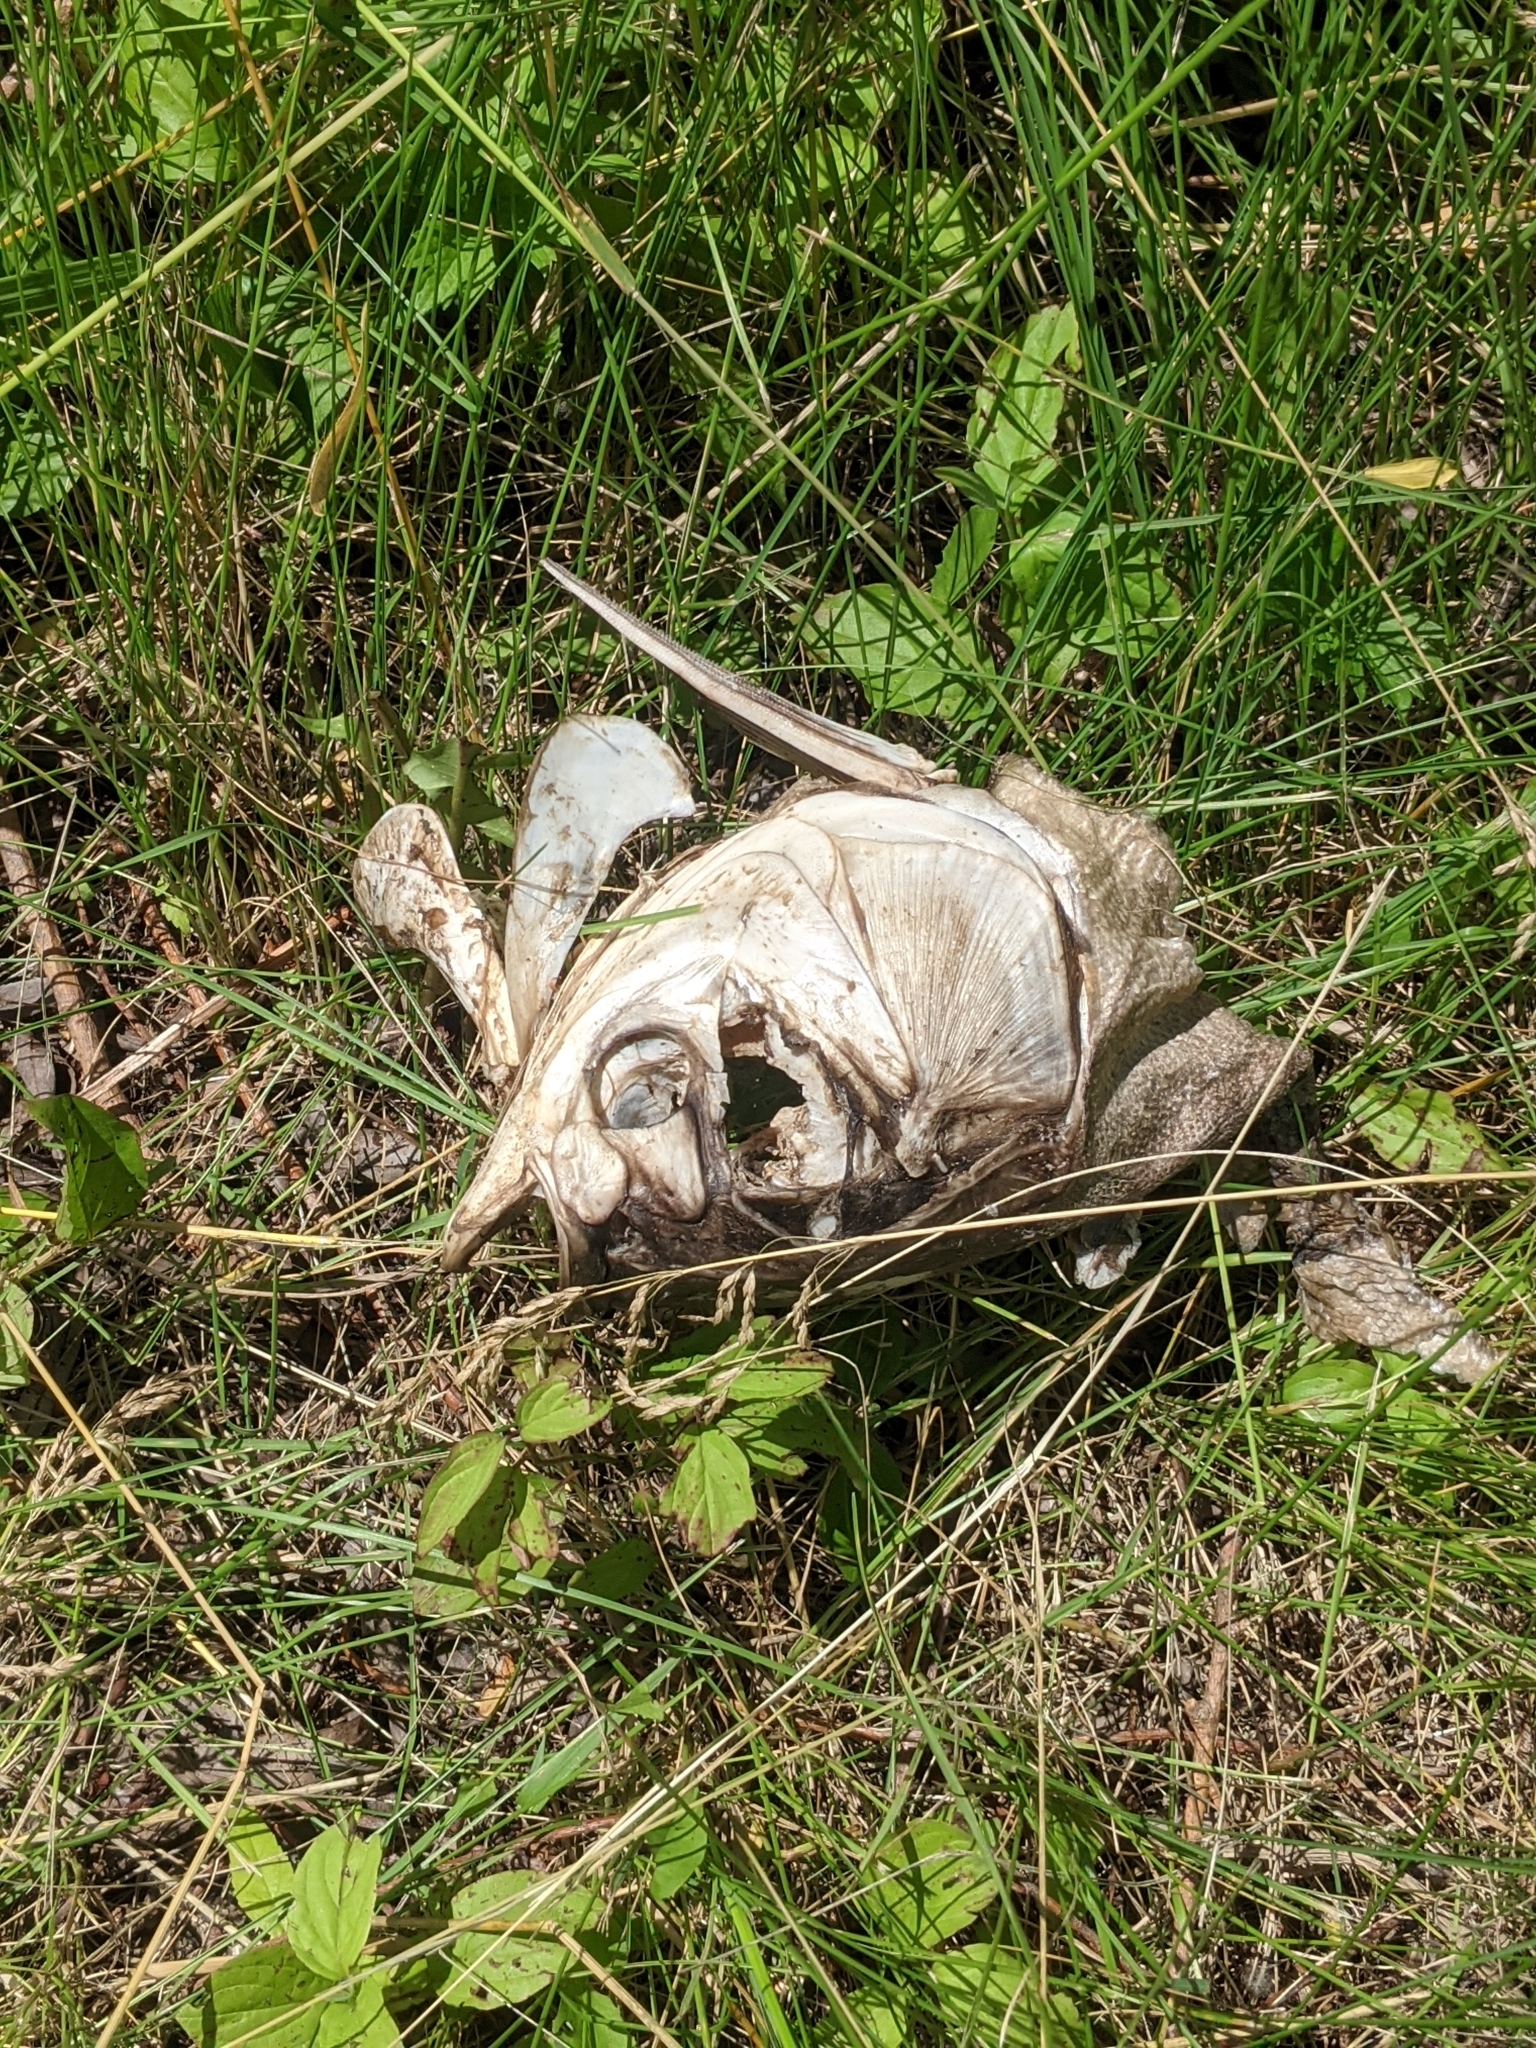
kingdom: Animalia
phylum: Chordata
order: Cypriniformes
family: Cyprinidae
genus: Hypophthalmichthys
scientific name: Hypophthalmichthys molitrix
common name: Silver carp
